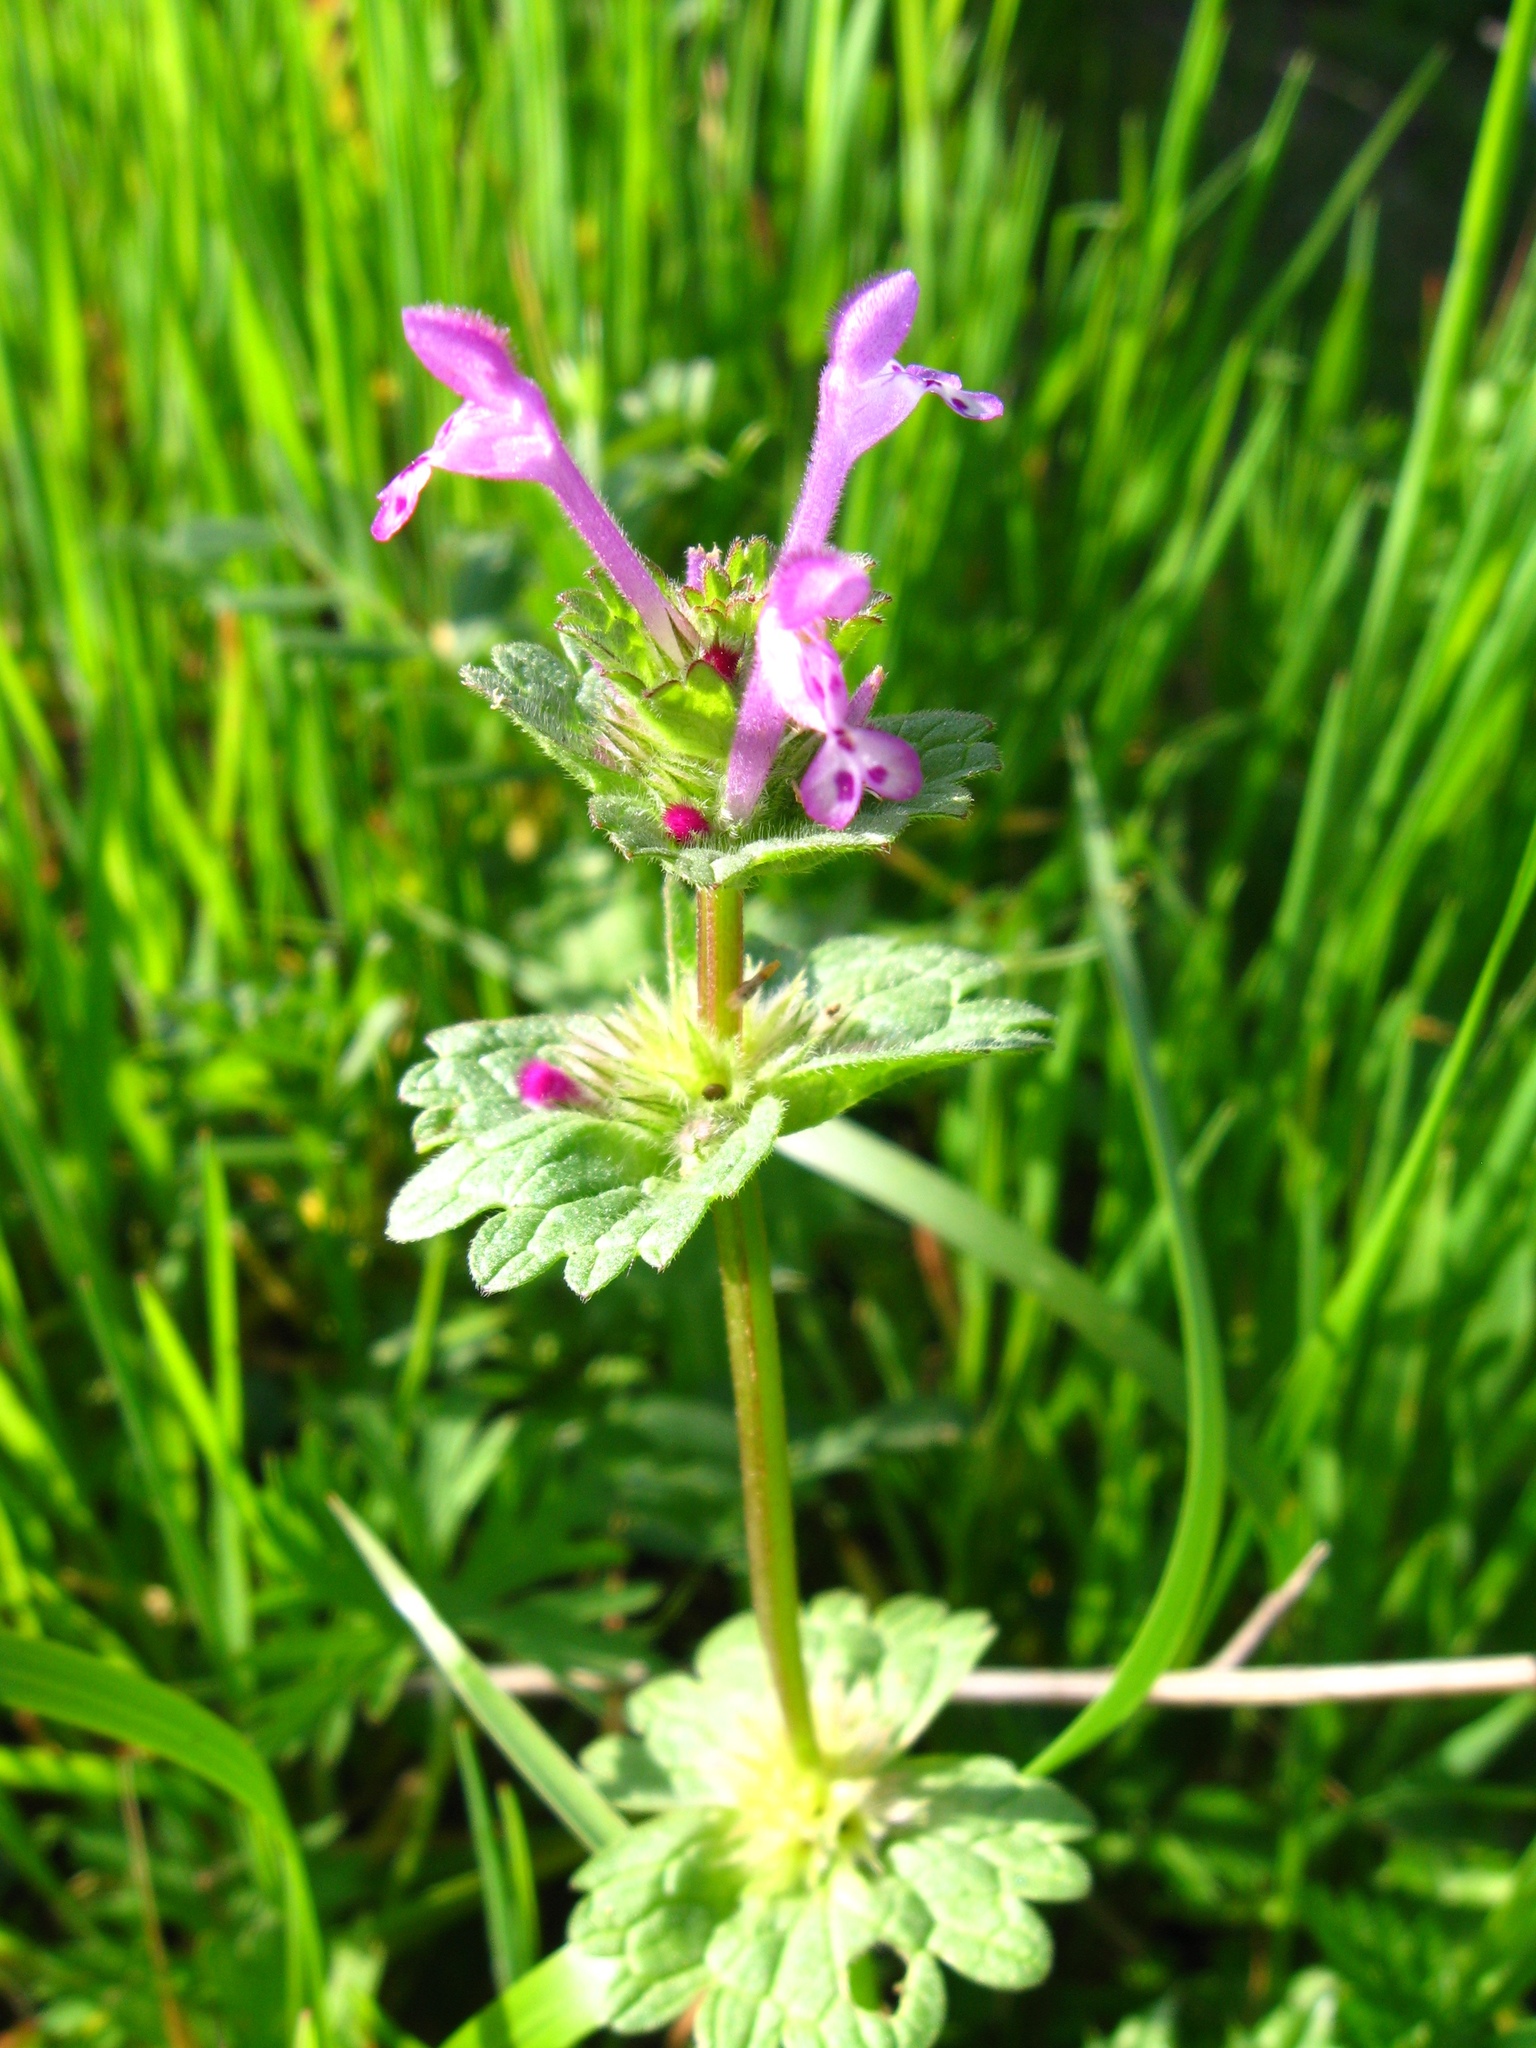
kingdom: Plantae
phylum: Tracheophyta
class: Magnoliopsida
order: Lamiales
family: Lamiaceae
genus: Lamium
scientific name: Lamium amplexicaule
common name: Henbit dead-nettle
